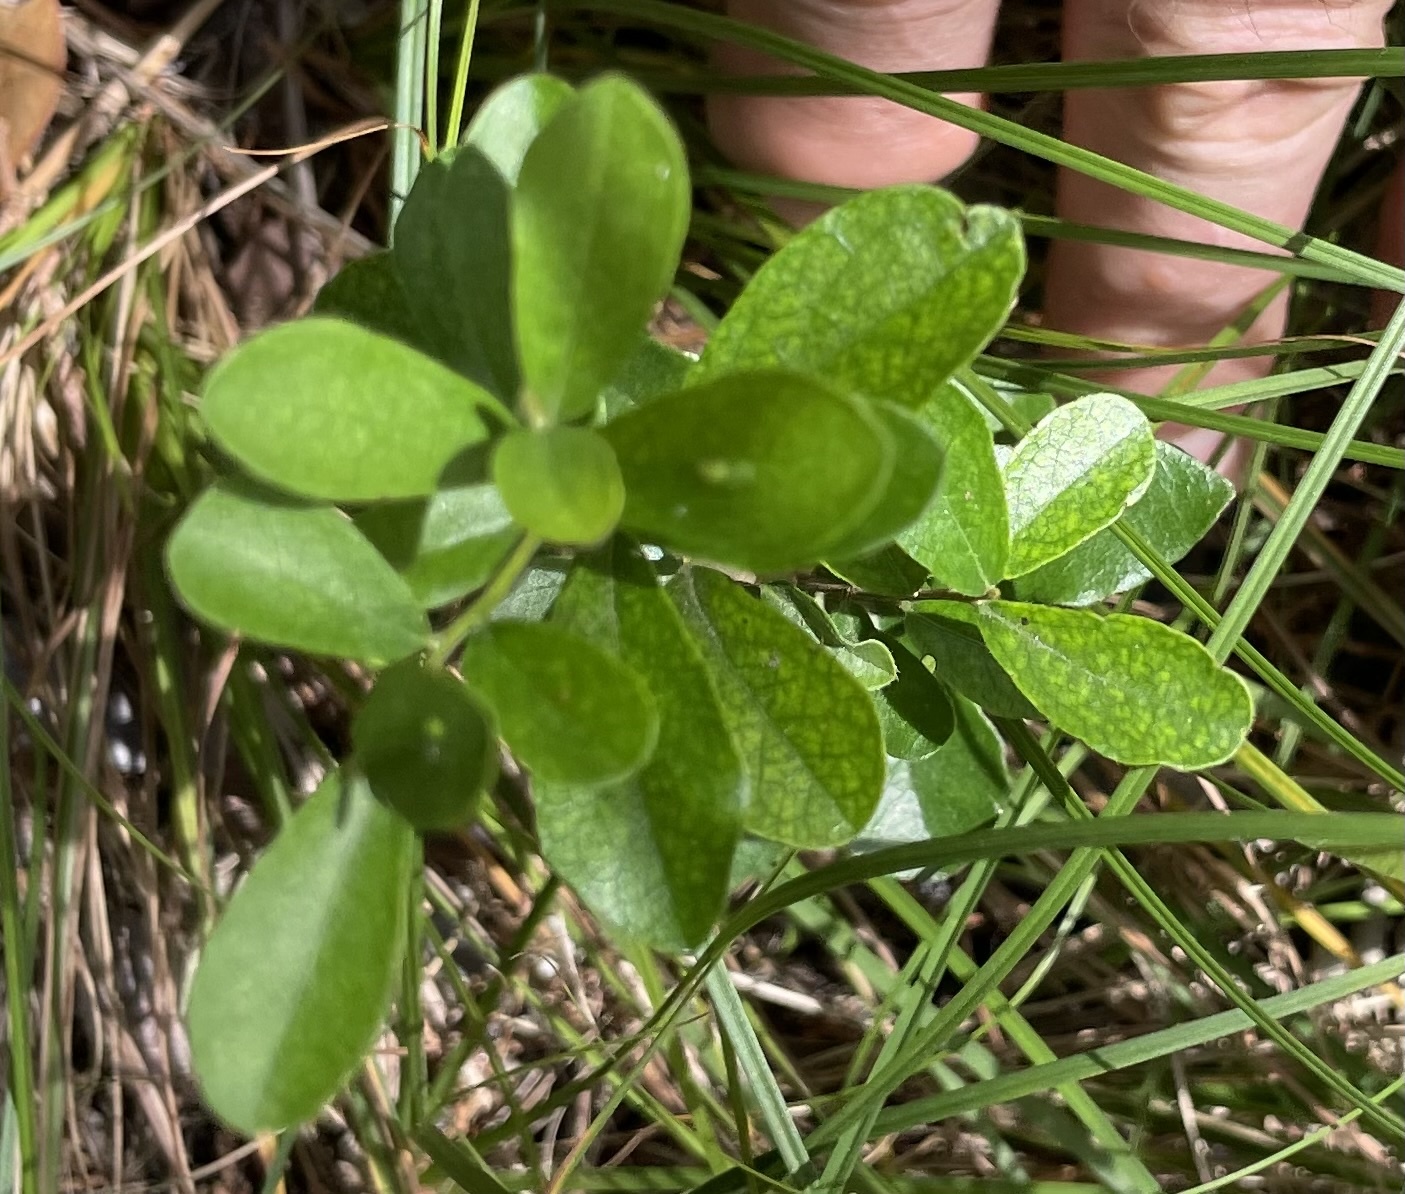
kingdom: Plantae
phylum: Tracheophyta
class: Magnoliopsida
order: Ericales
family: Ebenaceae
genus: Diospyros
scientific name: Diospyros texana
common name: Texas persimmon
